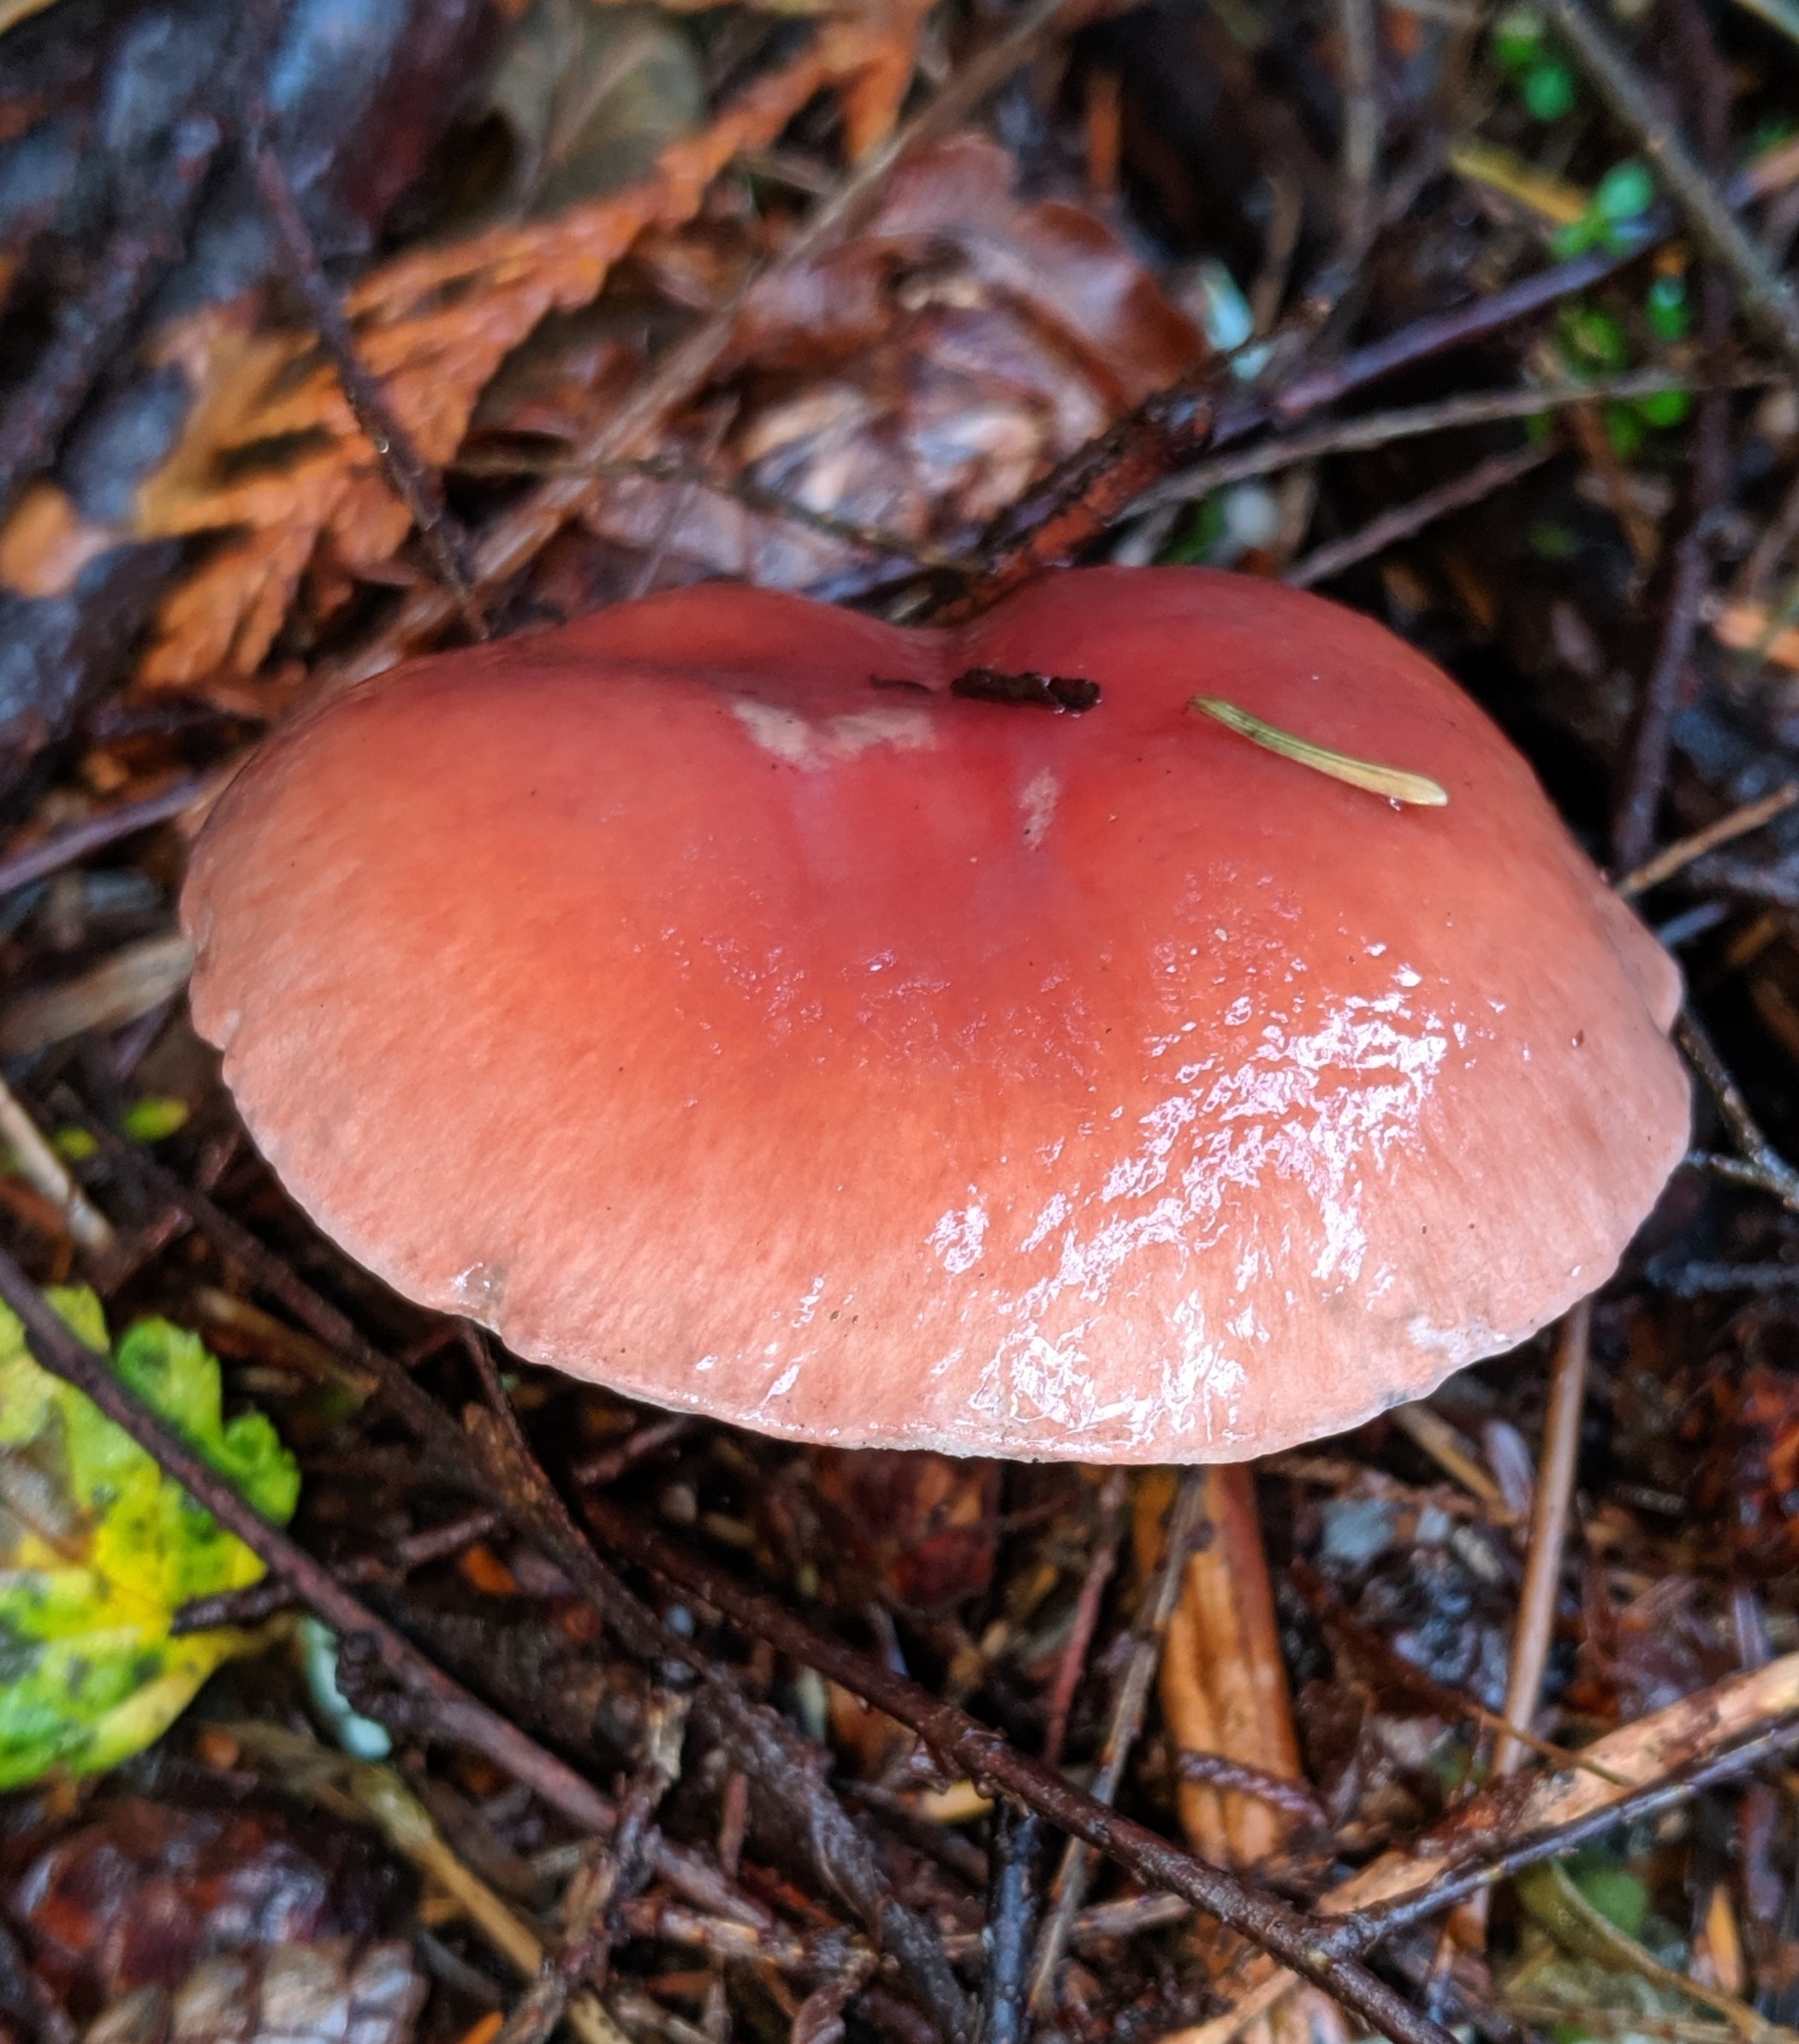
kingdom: Fungi
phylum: Basidiomycota
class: Agaricomycetes
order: Boletales
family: Gomphidiaceae
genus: Gomphidius
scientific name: Gomphidius subroseus
